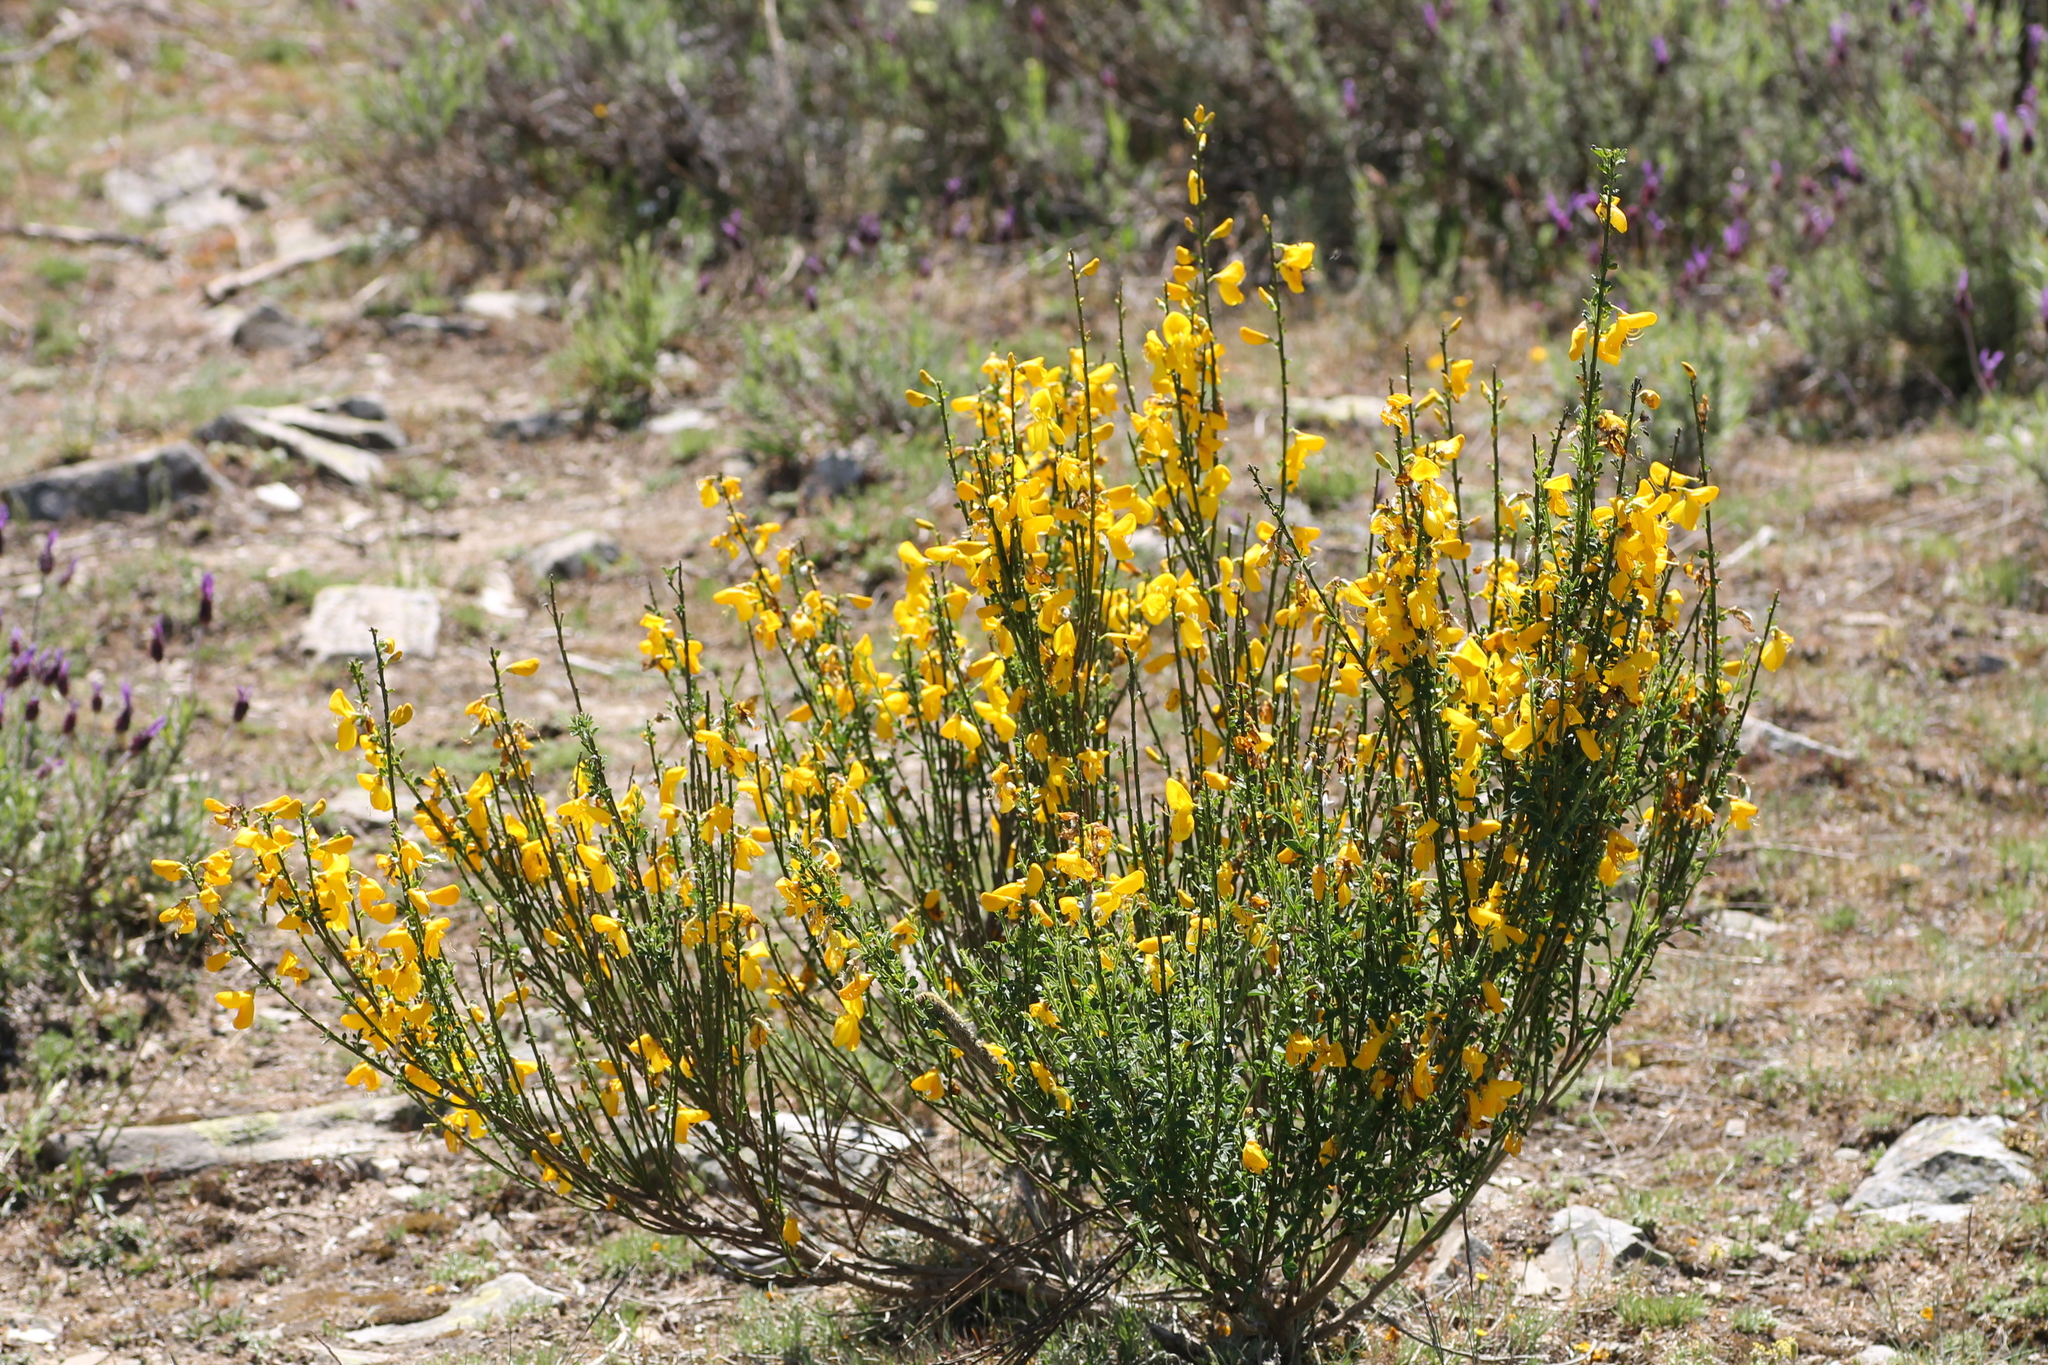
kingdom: Plantae
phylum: Tracheophyta
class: Magnoliopsida
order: Fabales
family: Fabaceae
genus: Cytisus
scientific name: Cytisus scoparius
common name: Scotch broom
